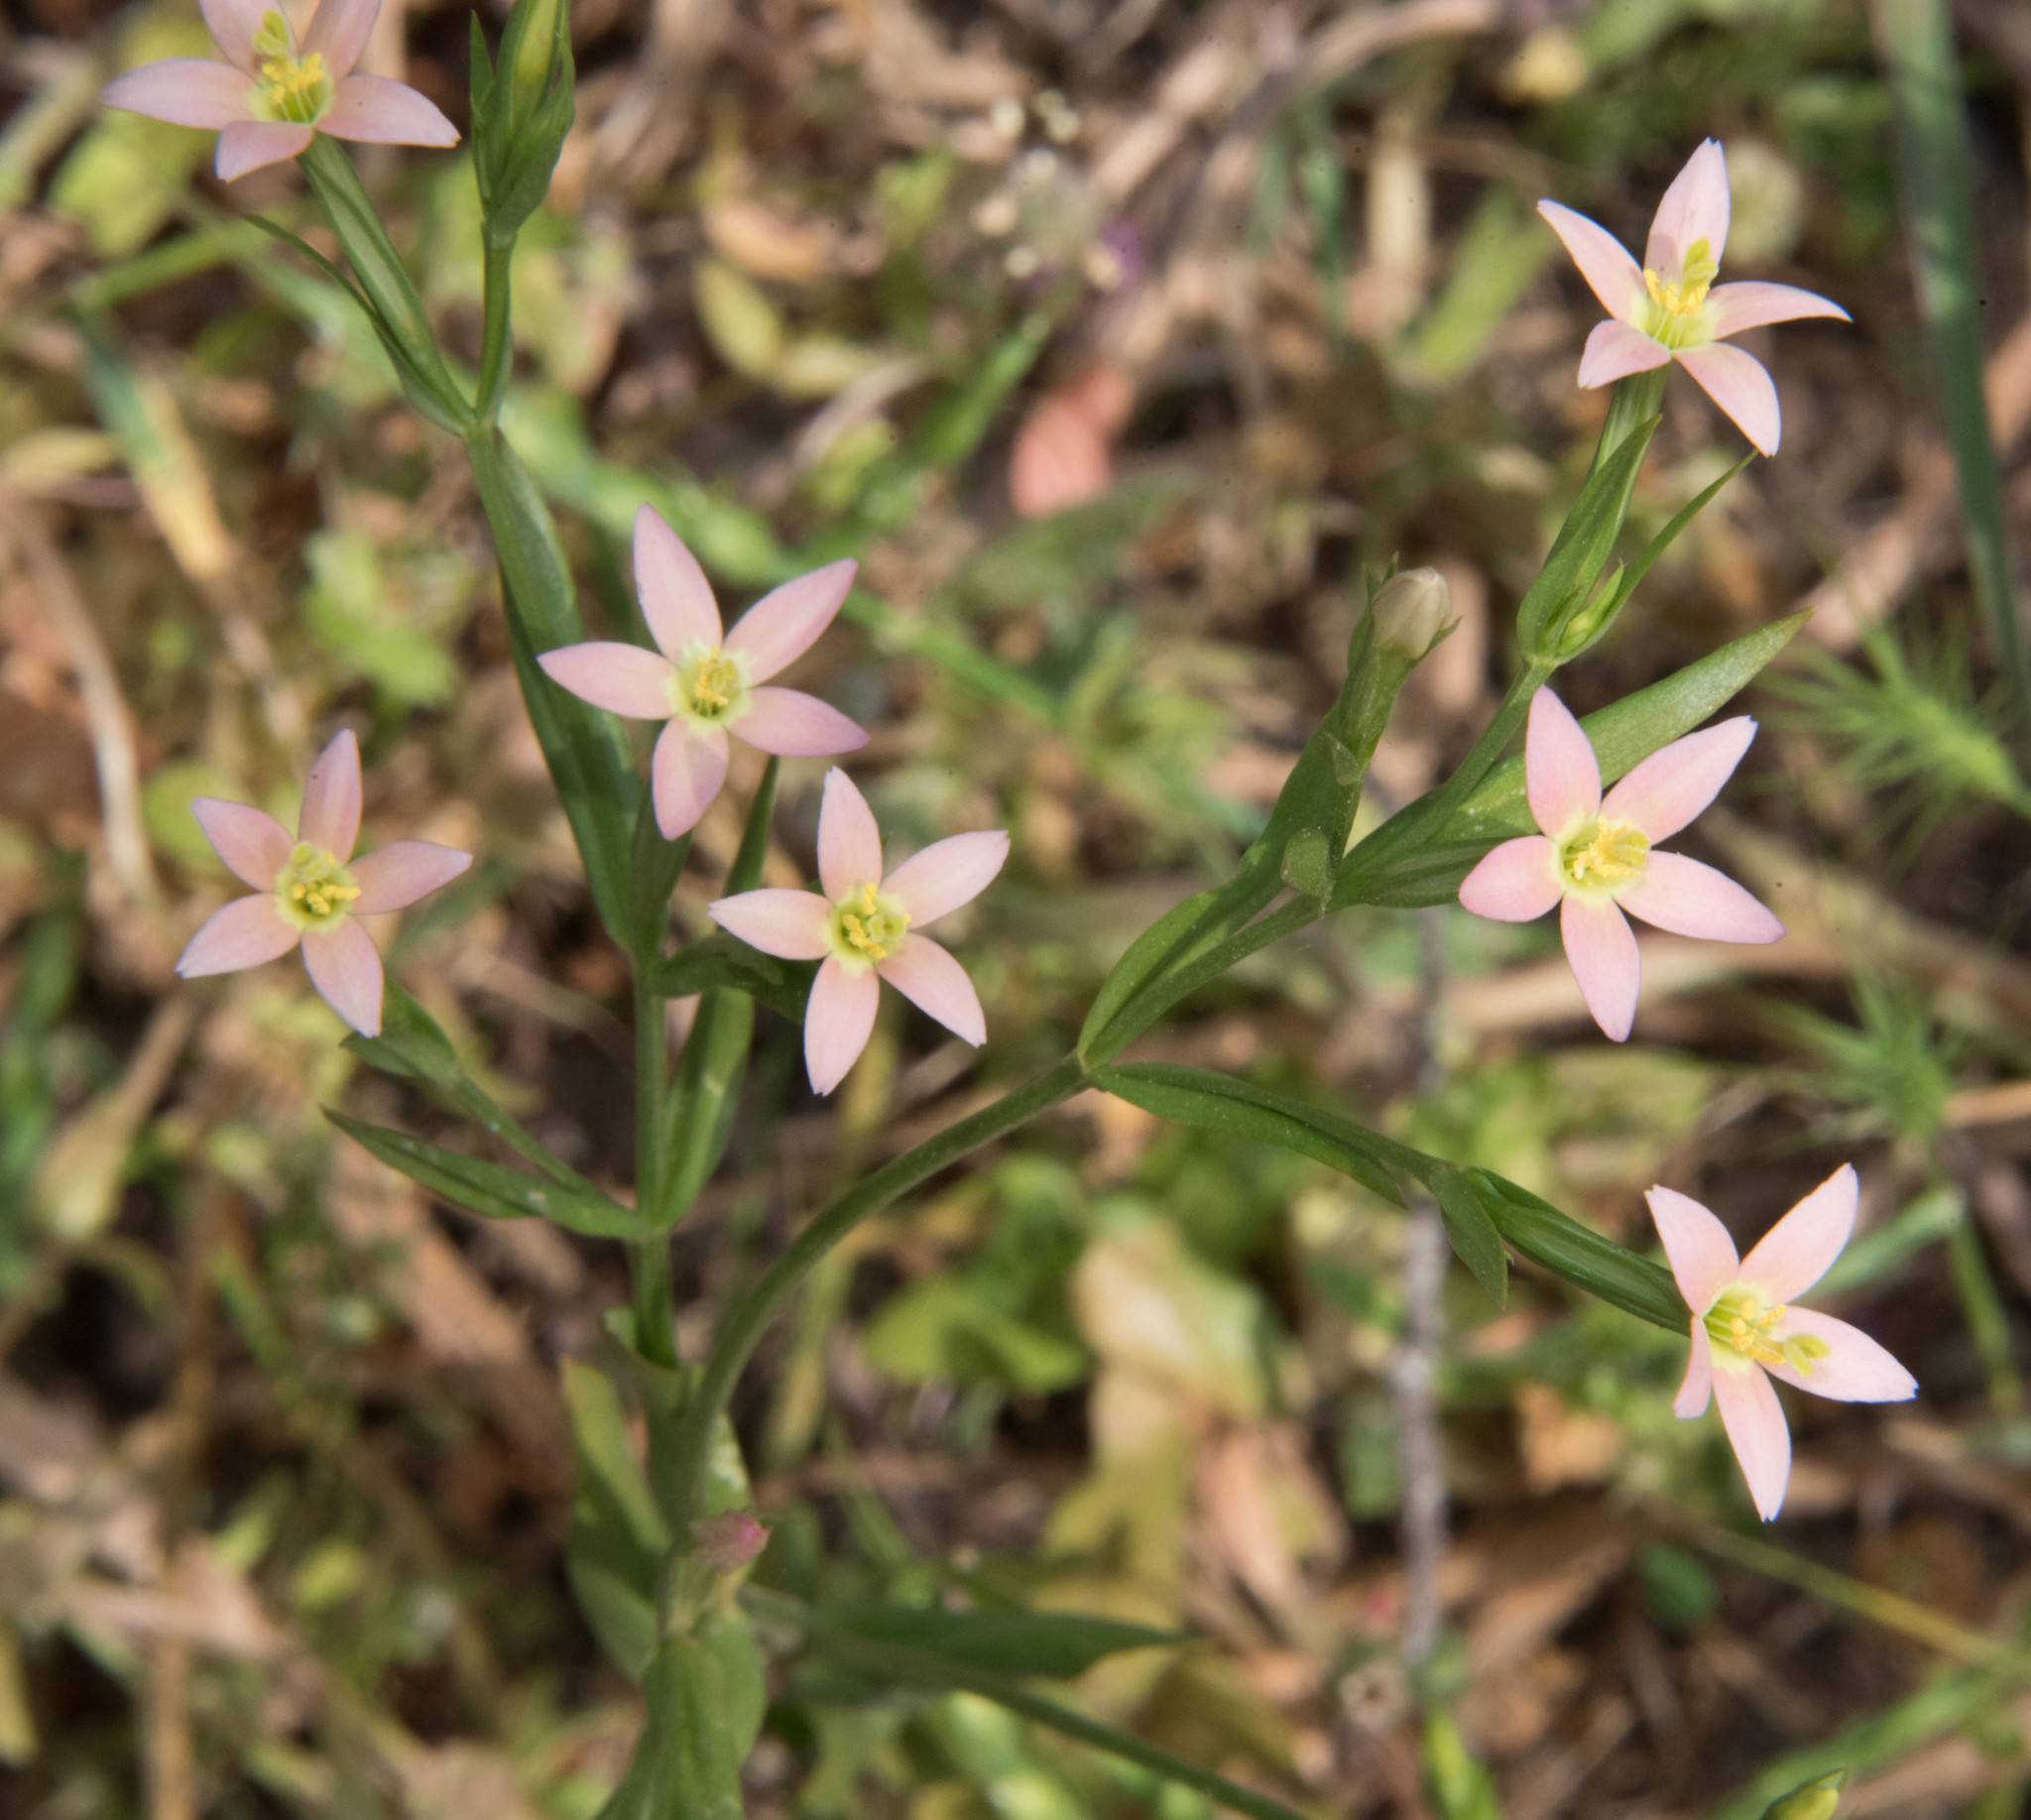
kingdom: Plantae
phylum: Tracheophyta
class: Magnoliopsida
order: Gentianales
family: Gentianaceae
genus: Centaurium
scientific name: Centaurium discolor
